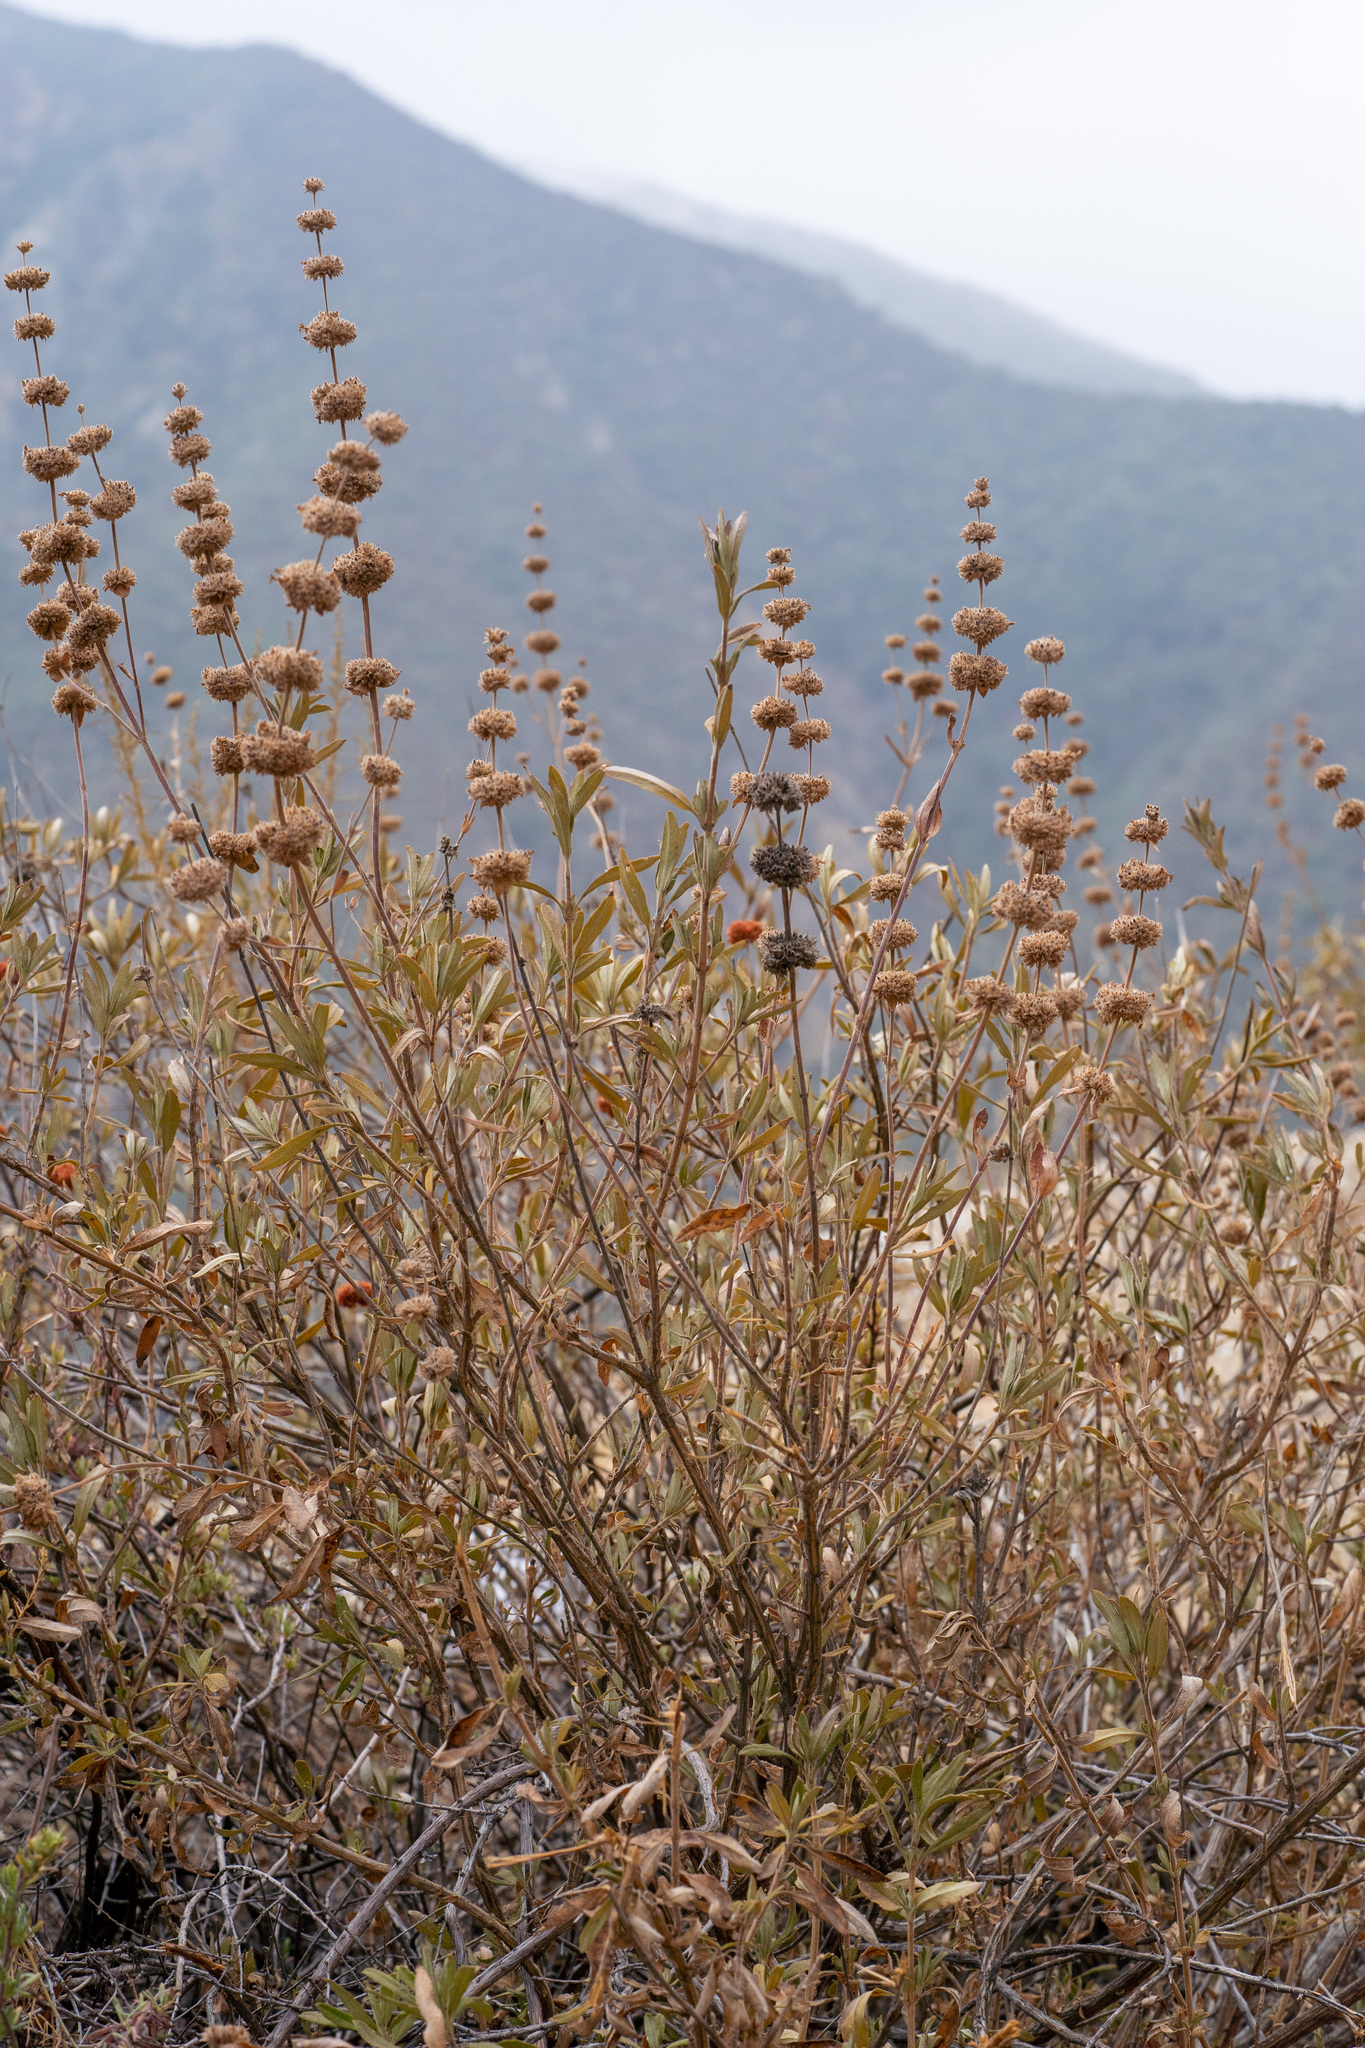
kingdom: Plantae
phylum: Tracheophyta
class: Magnoliopsida
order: Lamiales
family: Lamiaceae
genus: Salvia
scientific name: Salvia mellifera
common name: Black sage
